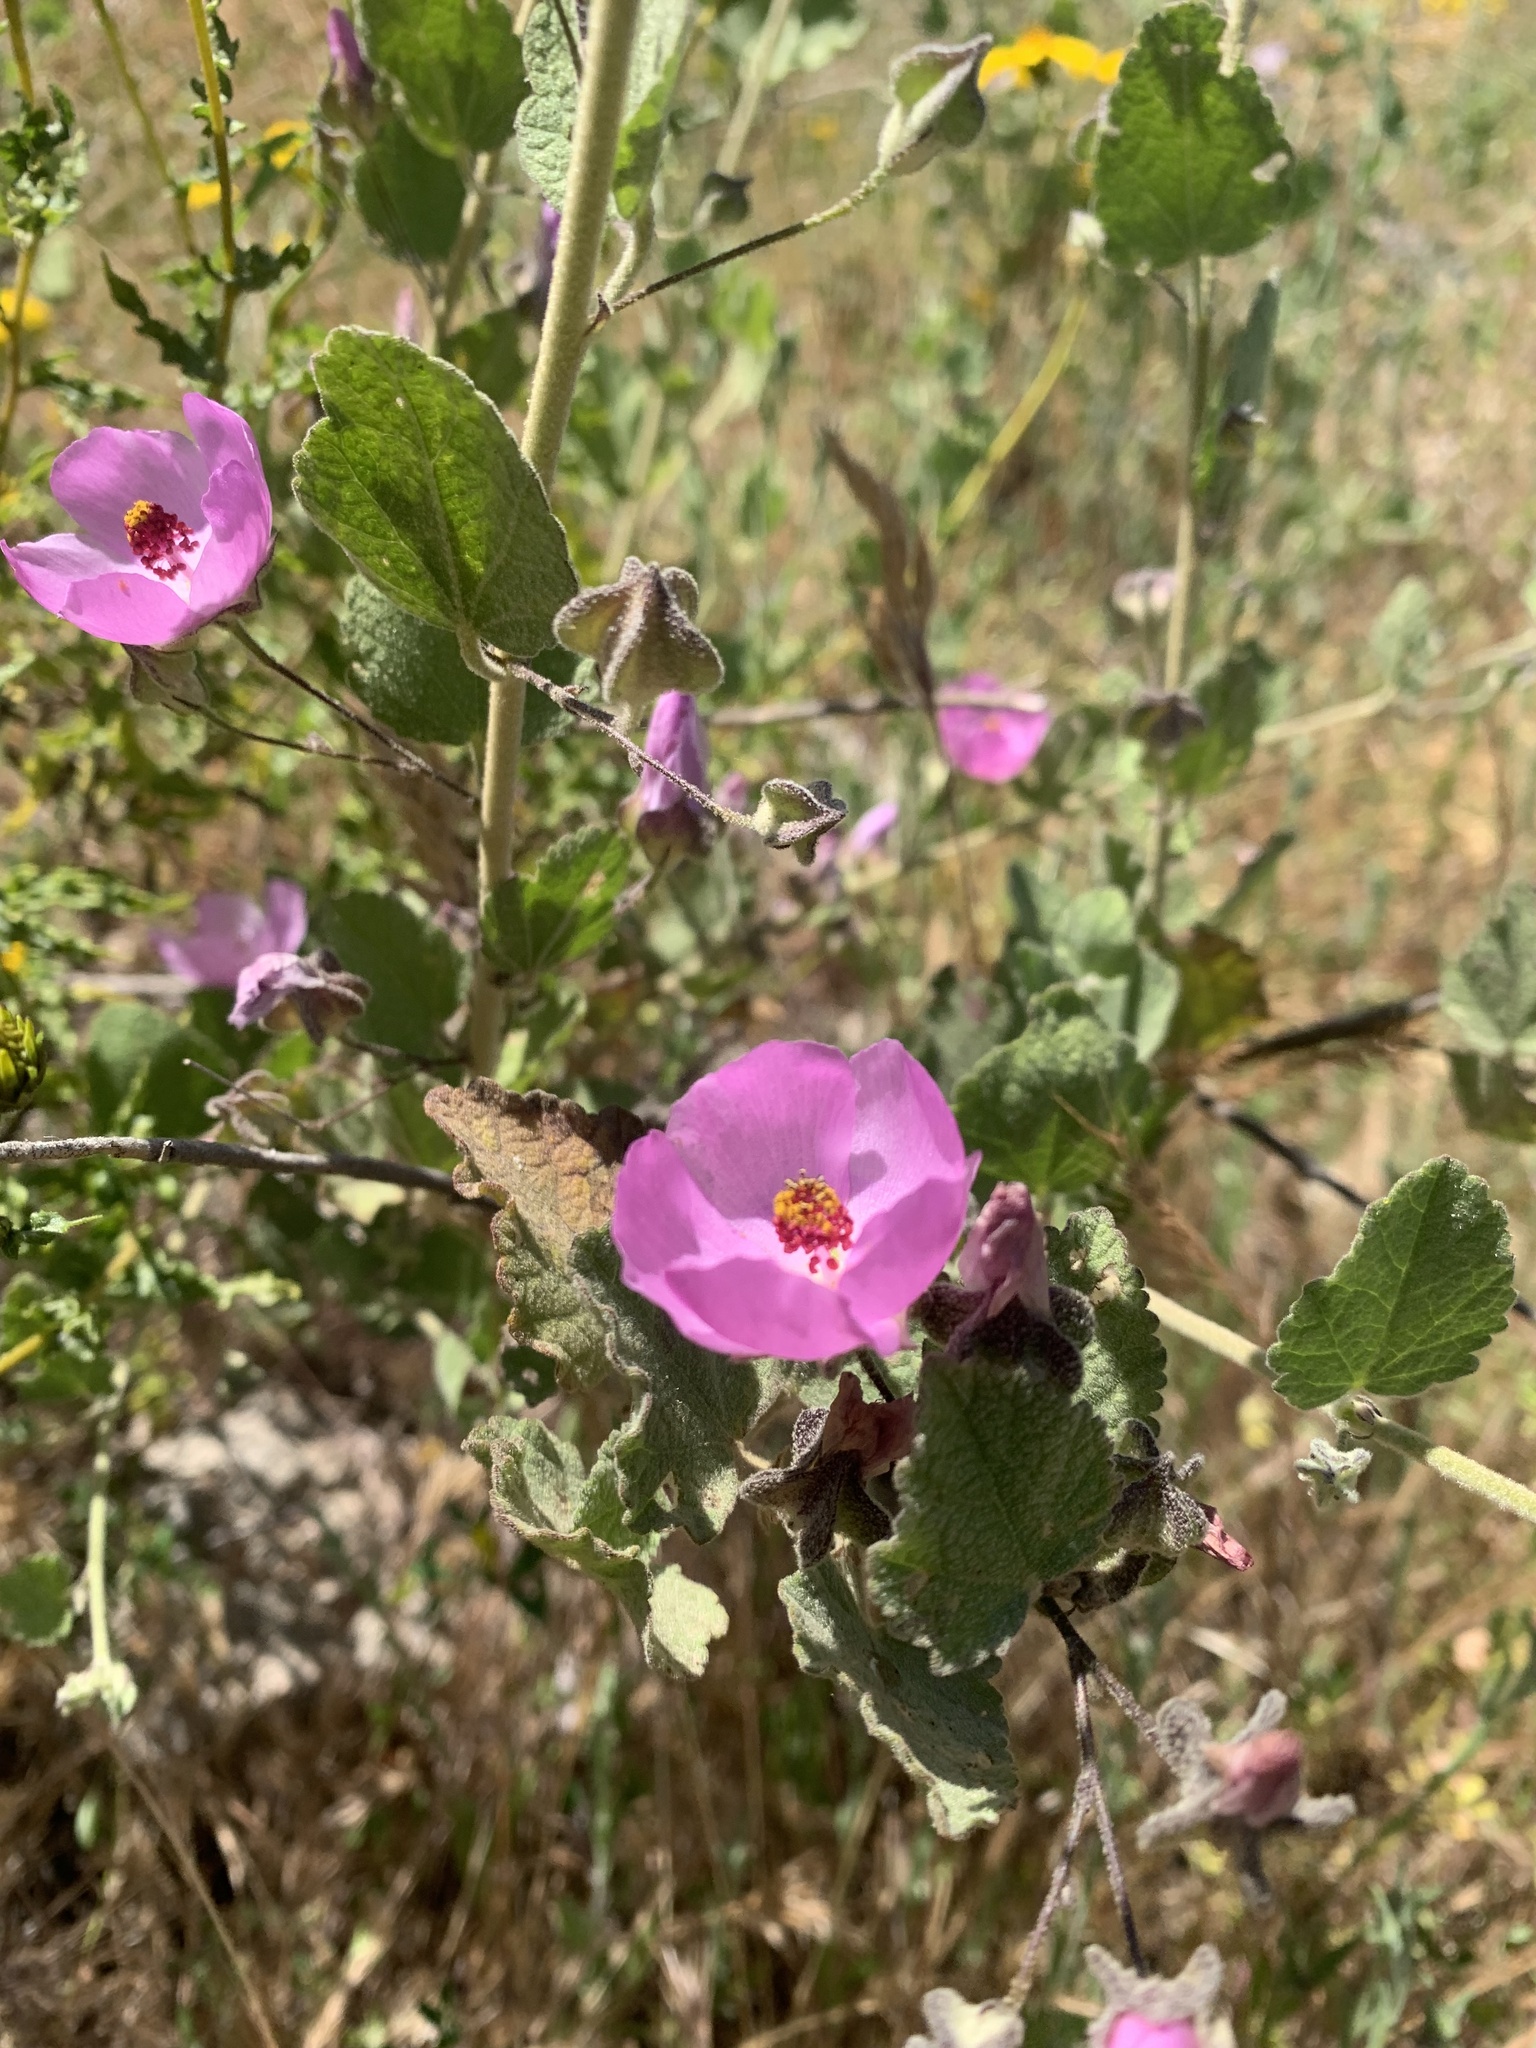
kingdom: Plantae
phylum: Tracheophyta
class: Magnoliopsida
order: Malvales
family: Malvaceae
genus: Malacothamnus
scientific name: Malacothamnus foliosus
